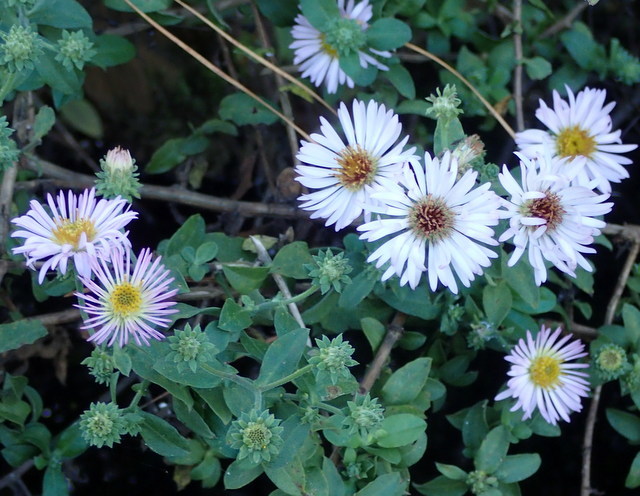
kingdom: Plantae
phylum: Tracheophyta
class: Magnoliopsida
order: Asterales
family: Asteraceae
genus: Ampelaster
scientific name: Ampelaster carolinianus
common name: Climbing aster
